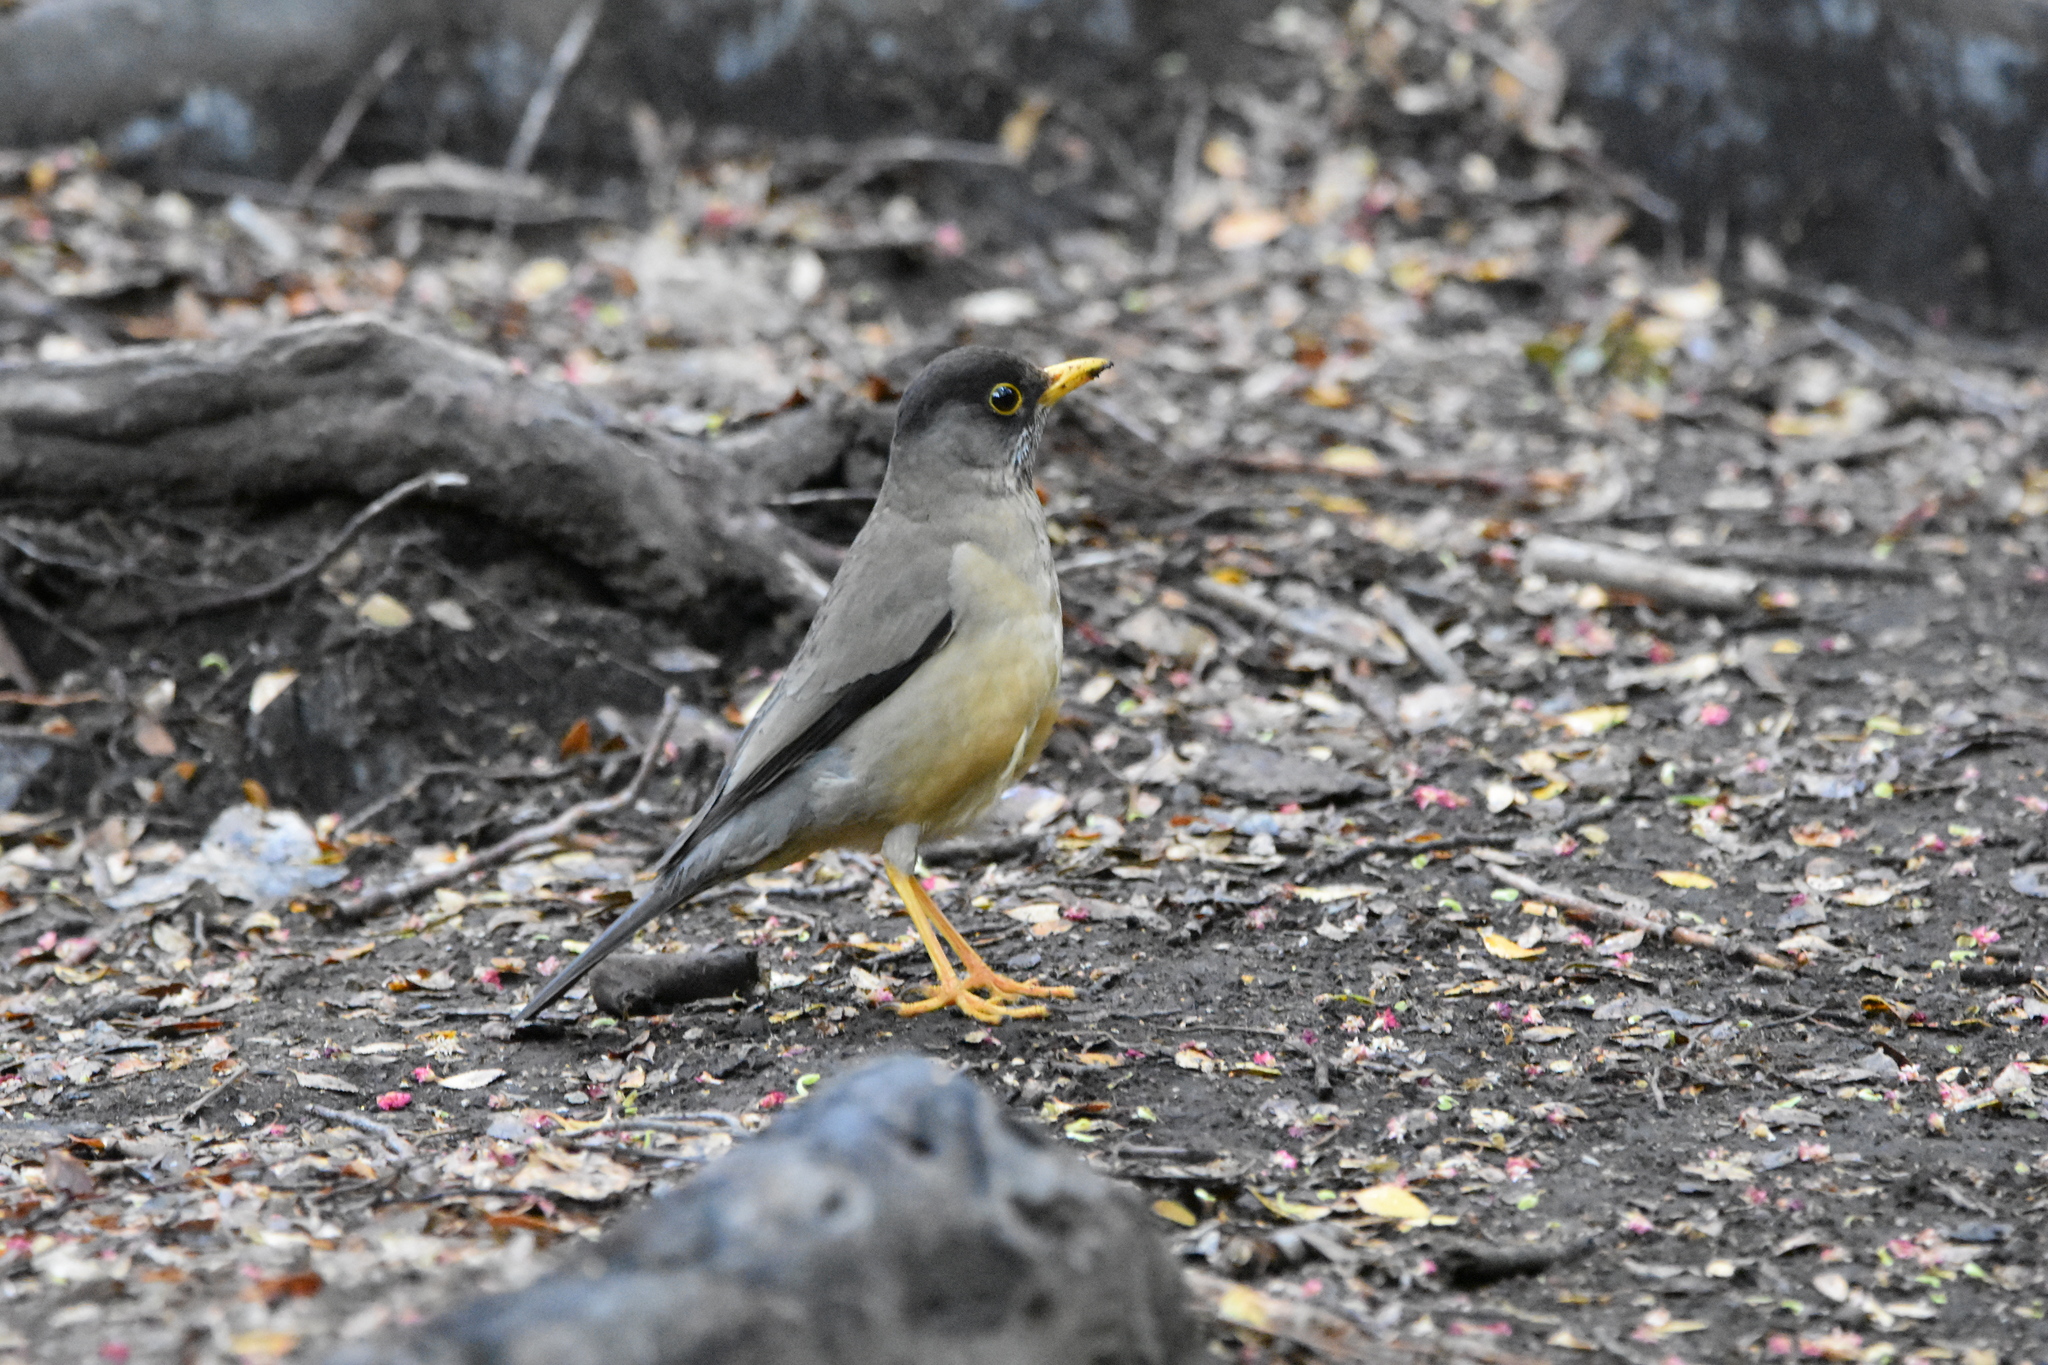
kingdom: Animalia
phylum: Chordata
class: Aves
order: Passeriformes
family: Turdidae
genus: Turdus
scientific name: Turdus falcklandii
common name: Austral thrush
